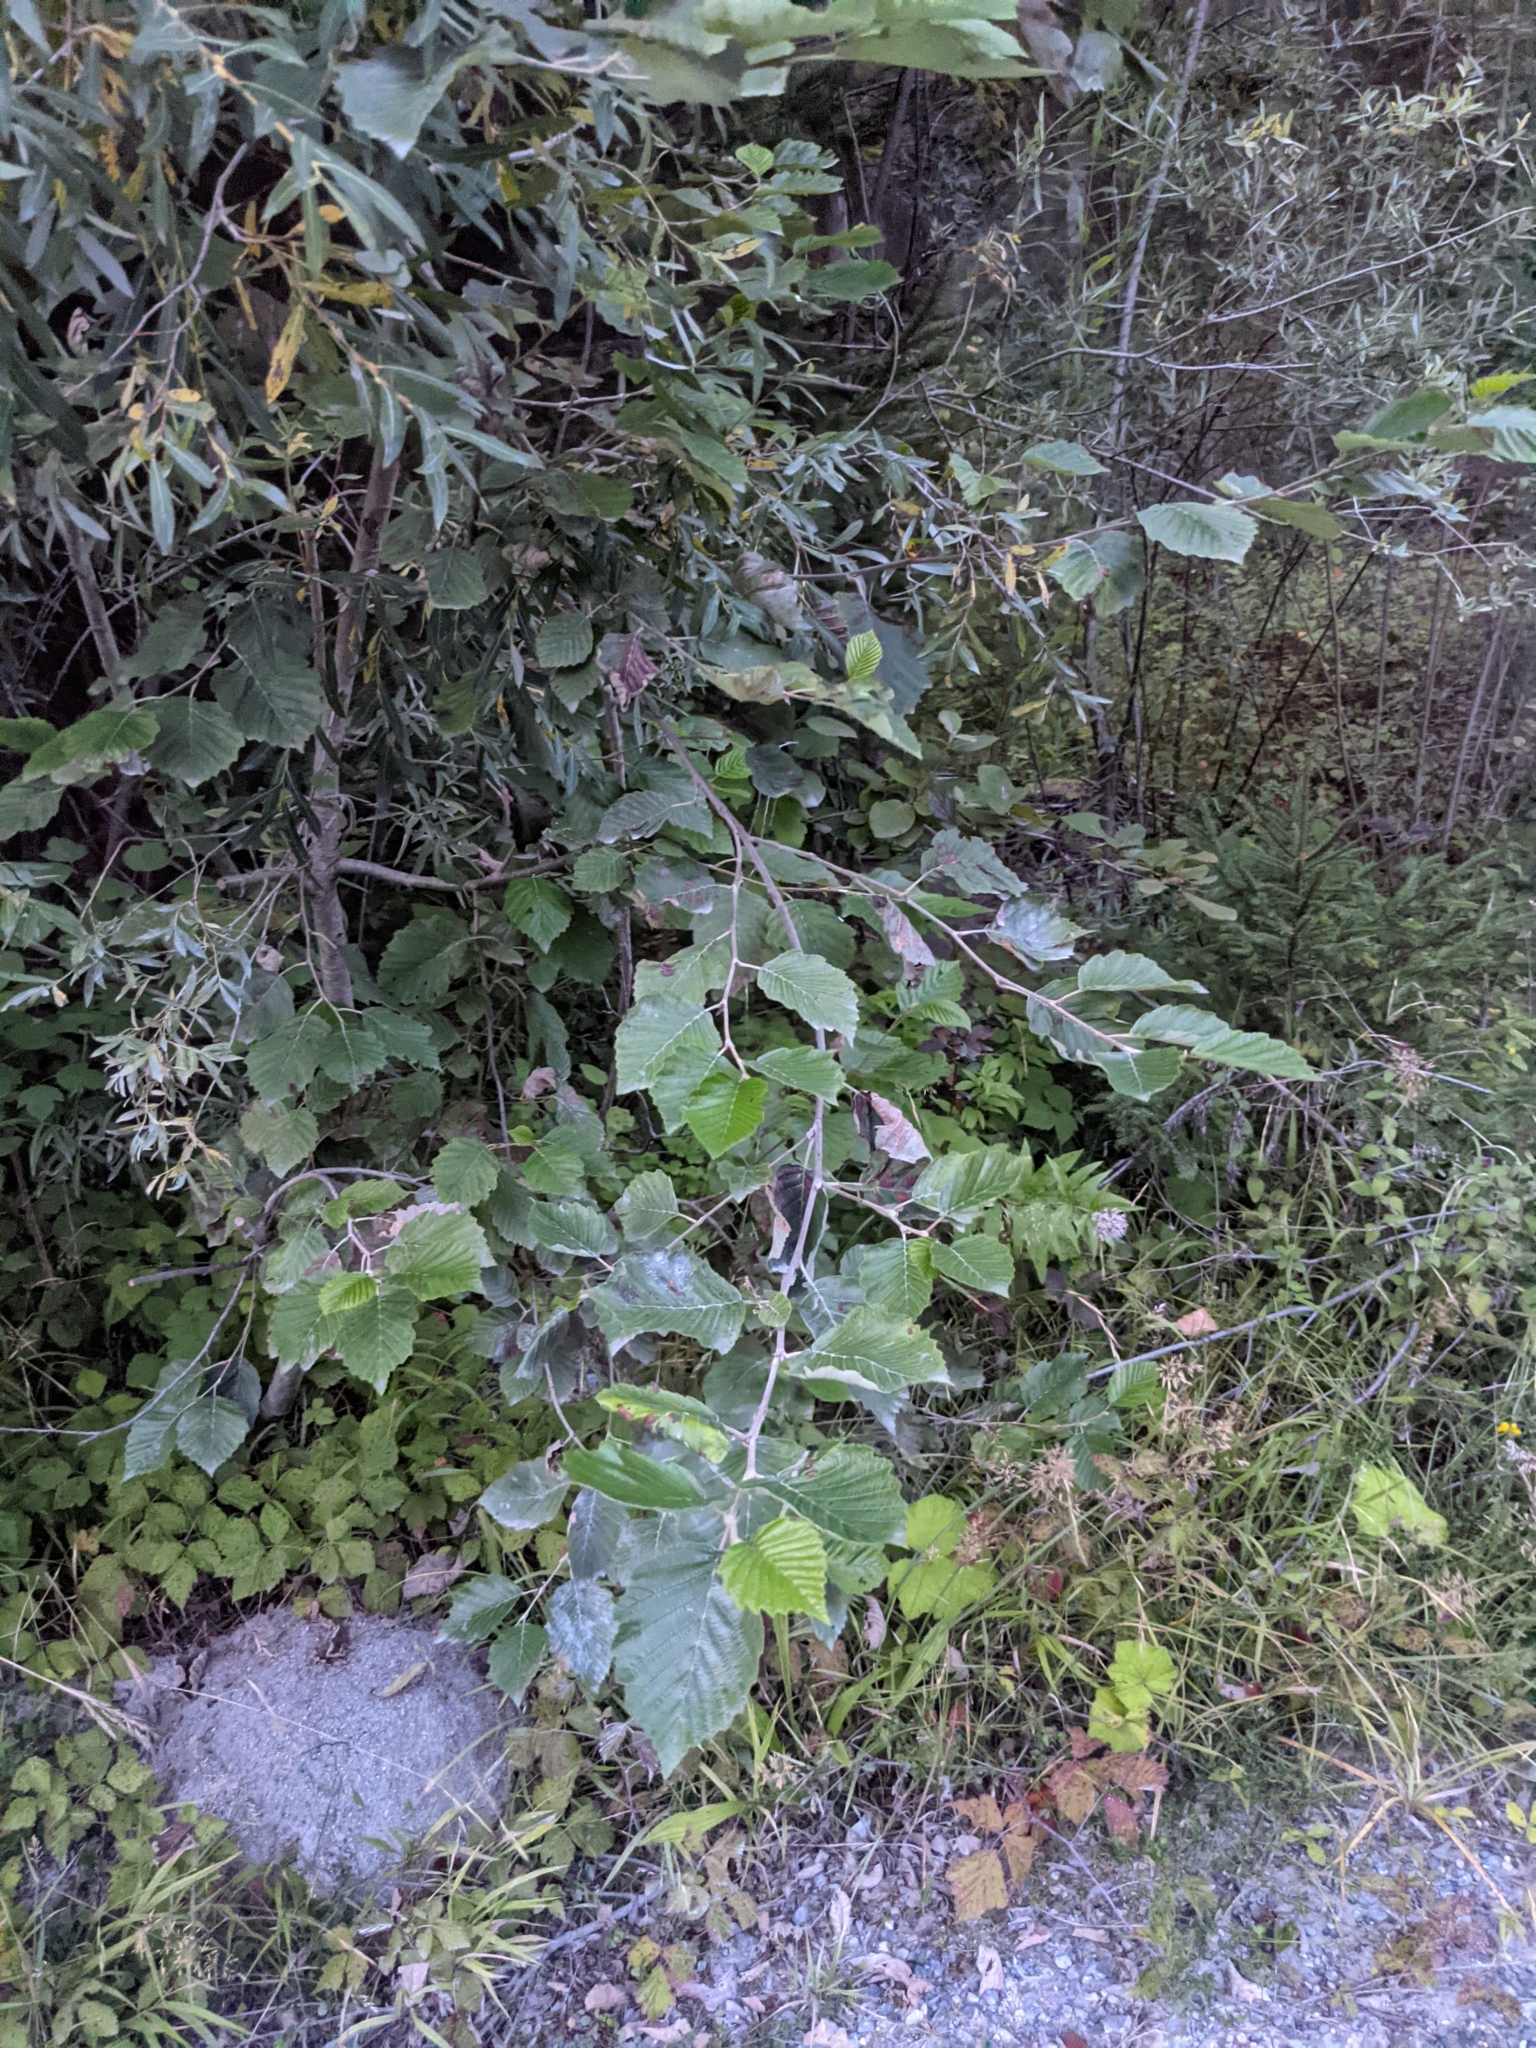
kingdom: Plantae
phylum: Tracheophyta
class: Magnoliopsida
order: Fagales
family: Betulaceae
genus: Alnus
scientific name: Alnus incana
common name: Grey alder
